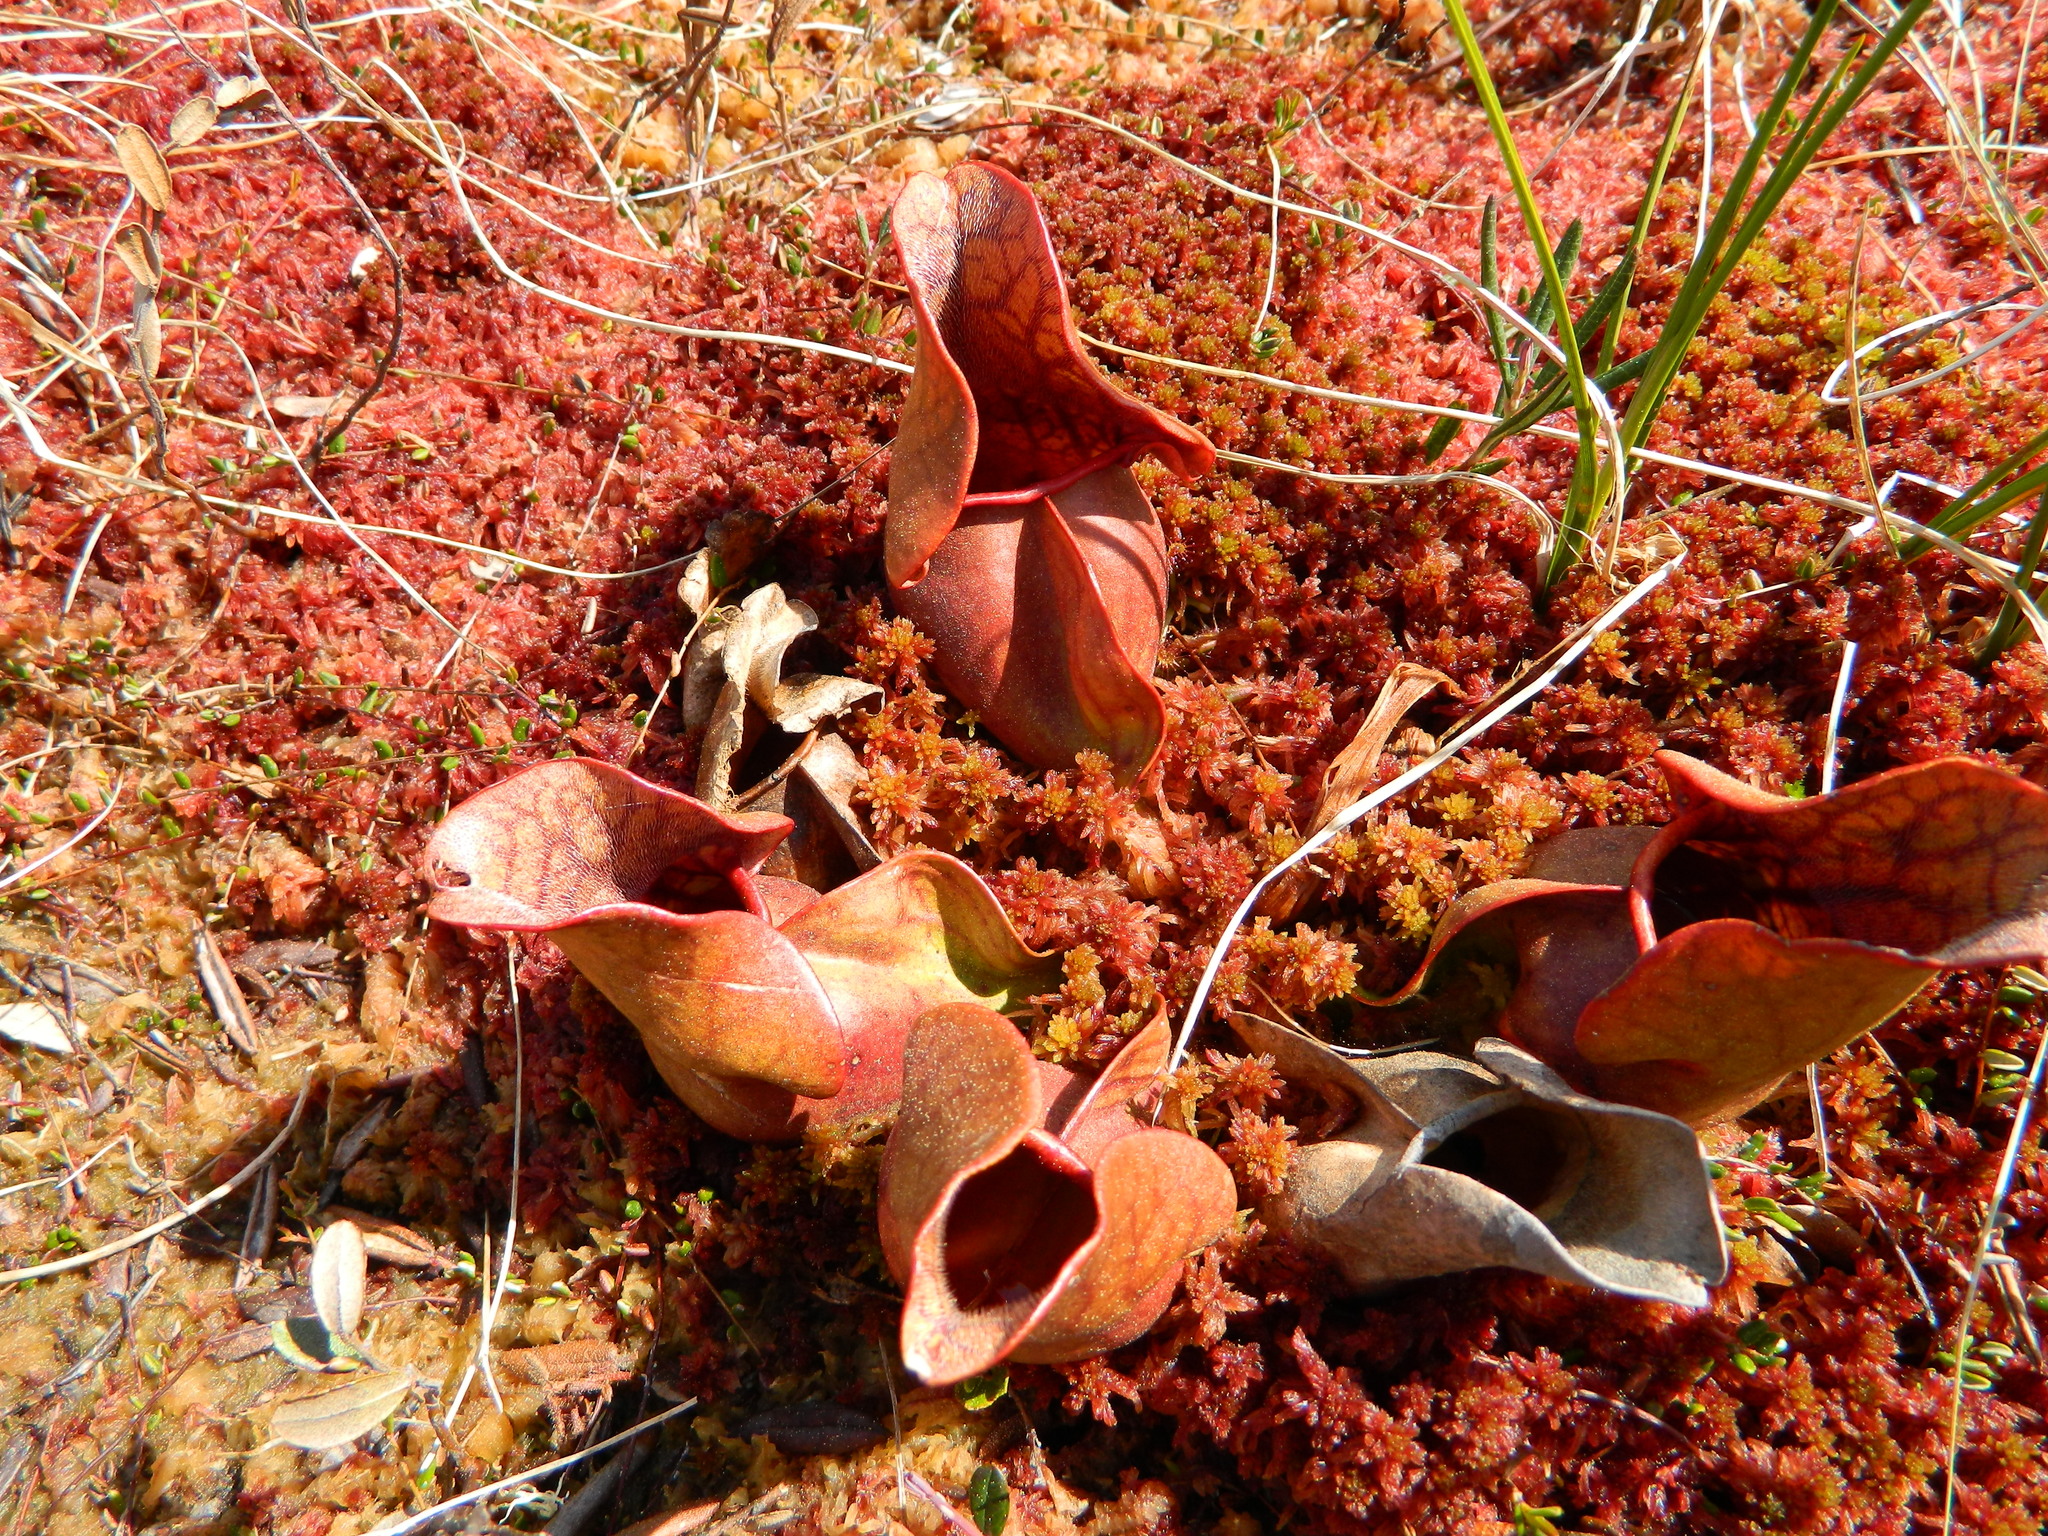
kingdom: Plantae
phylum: Tracheophyta
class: Magnoliopsida
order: Ericales
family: Sarraceniaceae
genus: Sarracenia
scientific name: Sarracenia purpurea
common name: Pitcherplant
